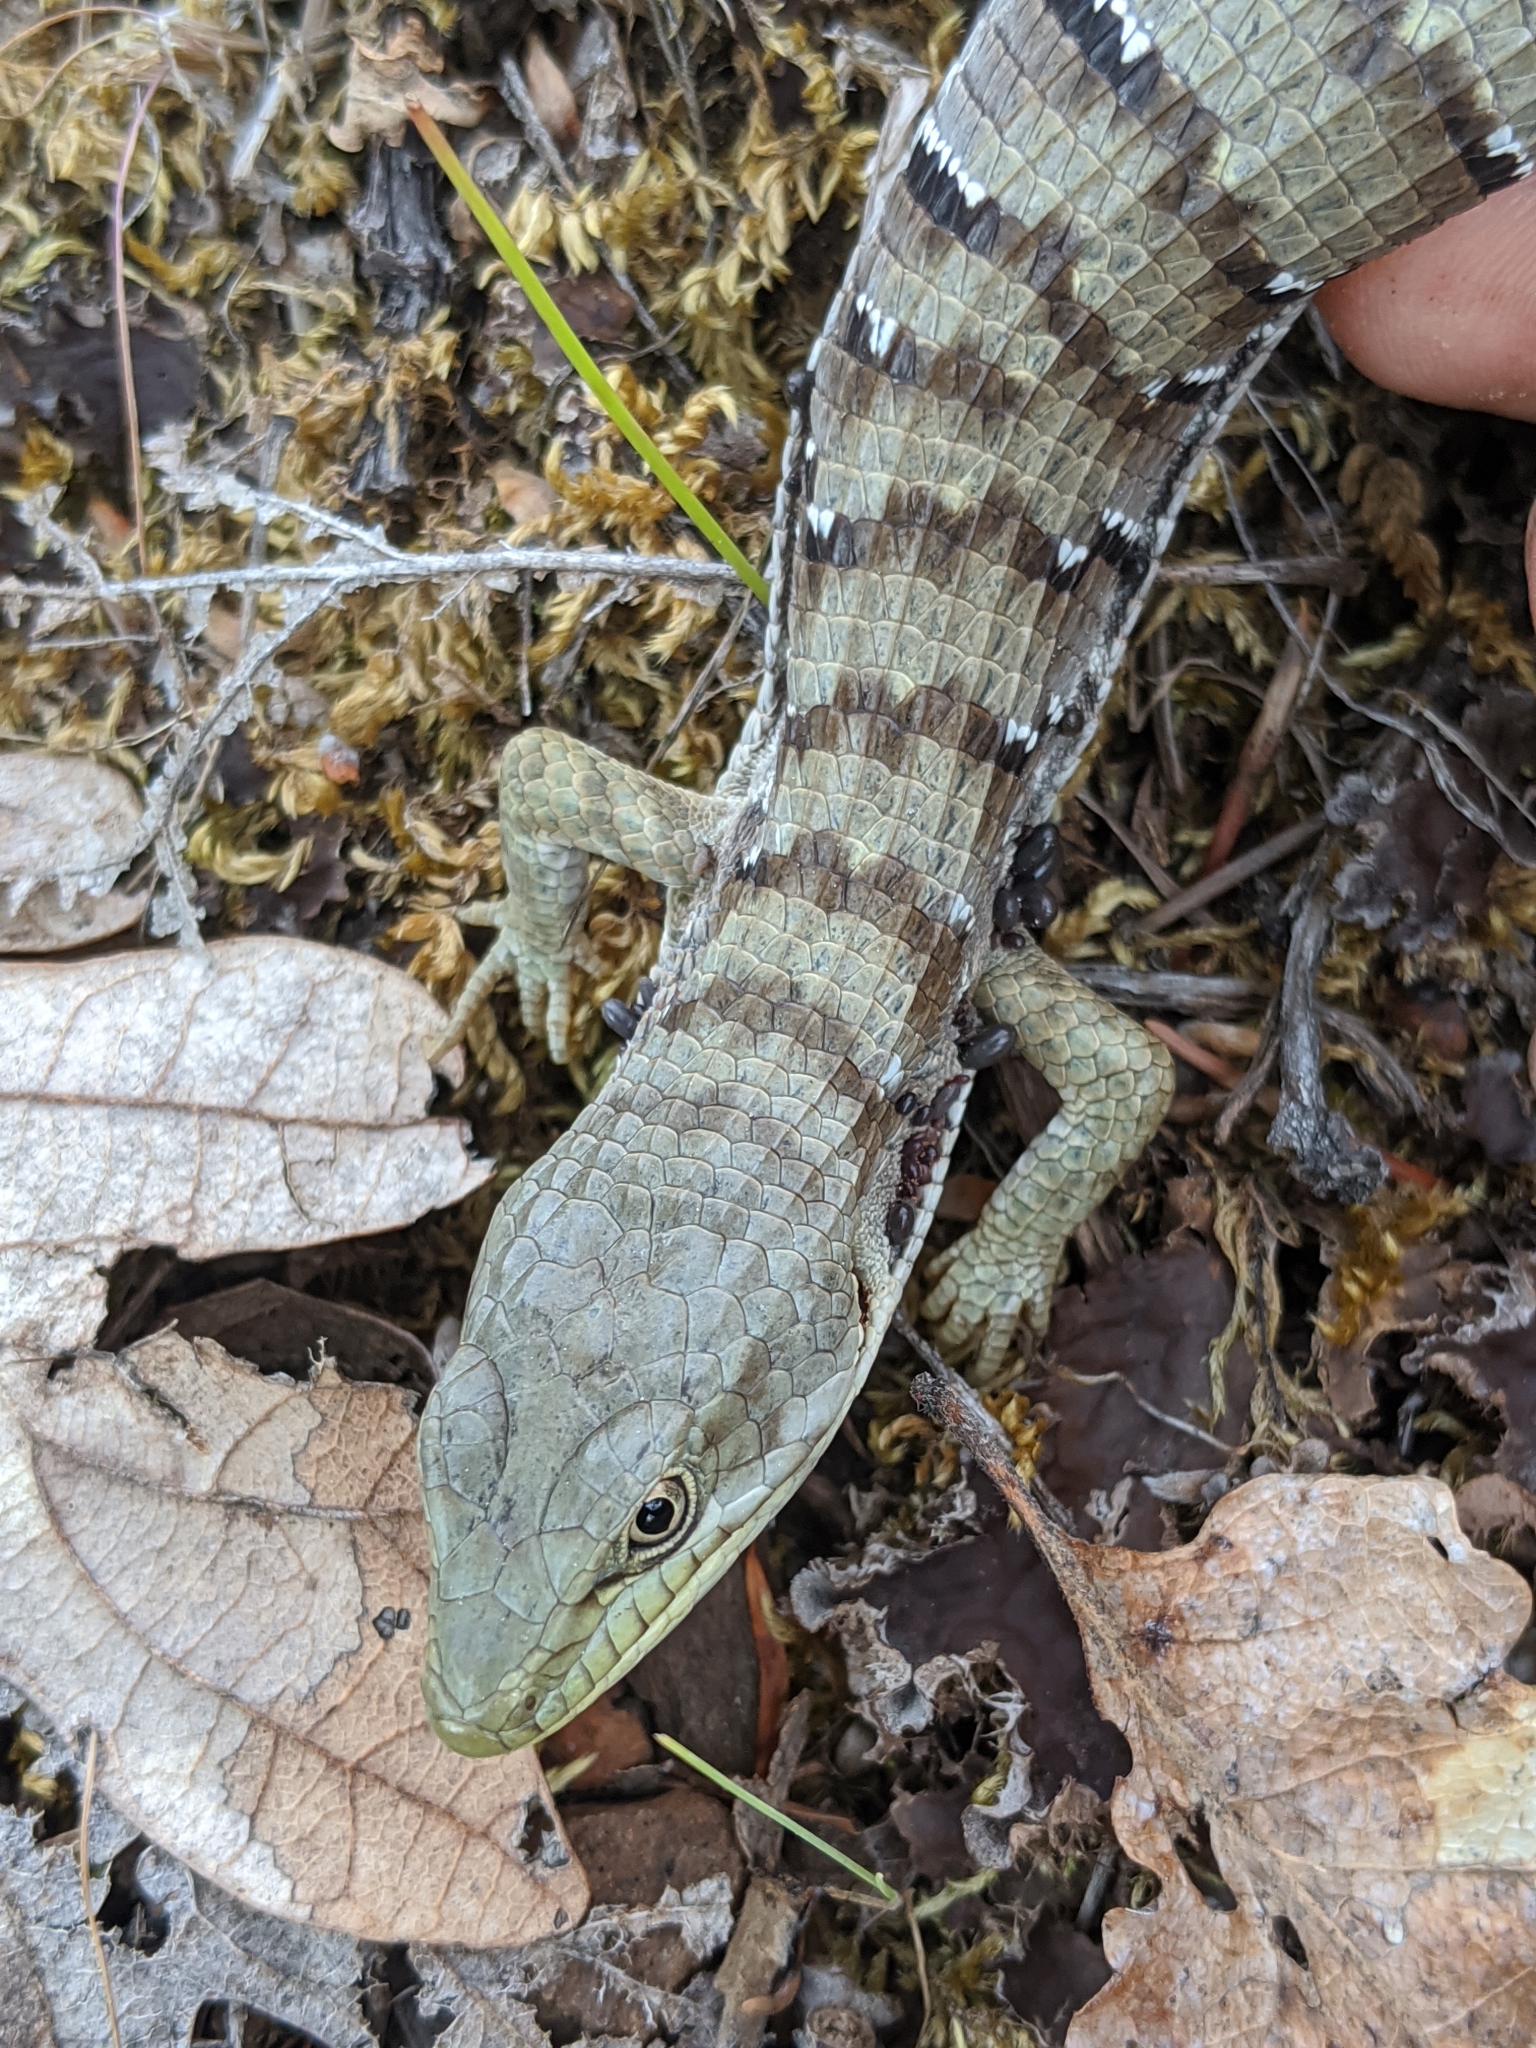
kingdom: Animalia
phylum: Chordata
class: Squamata
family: Anguidae
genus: Elgaria
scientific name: Elgaria multicarinata
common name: Southern alligator lizard
